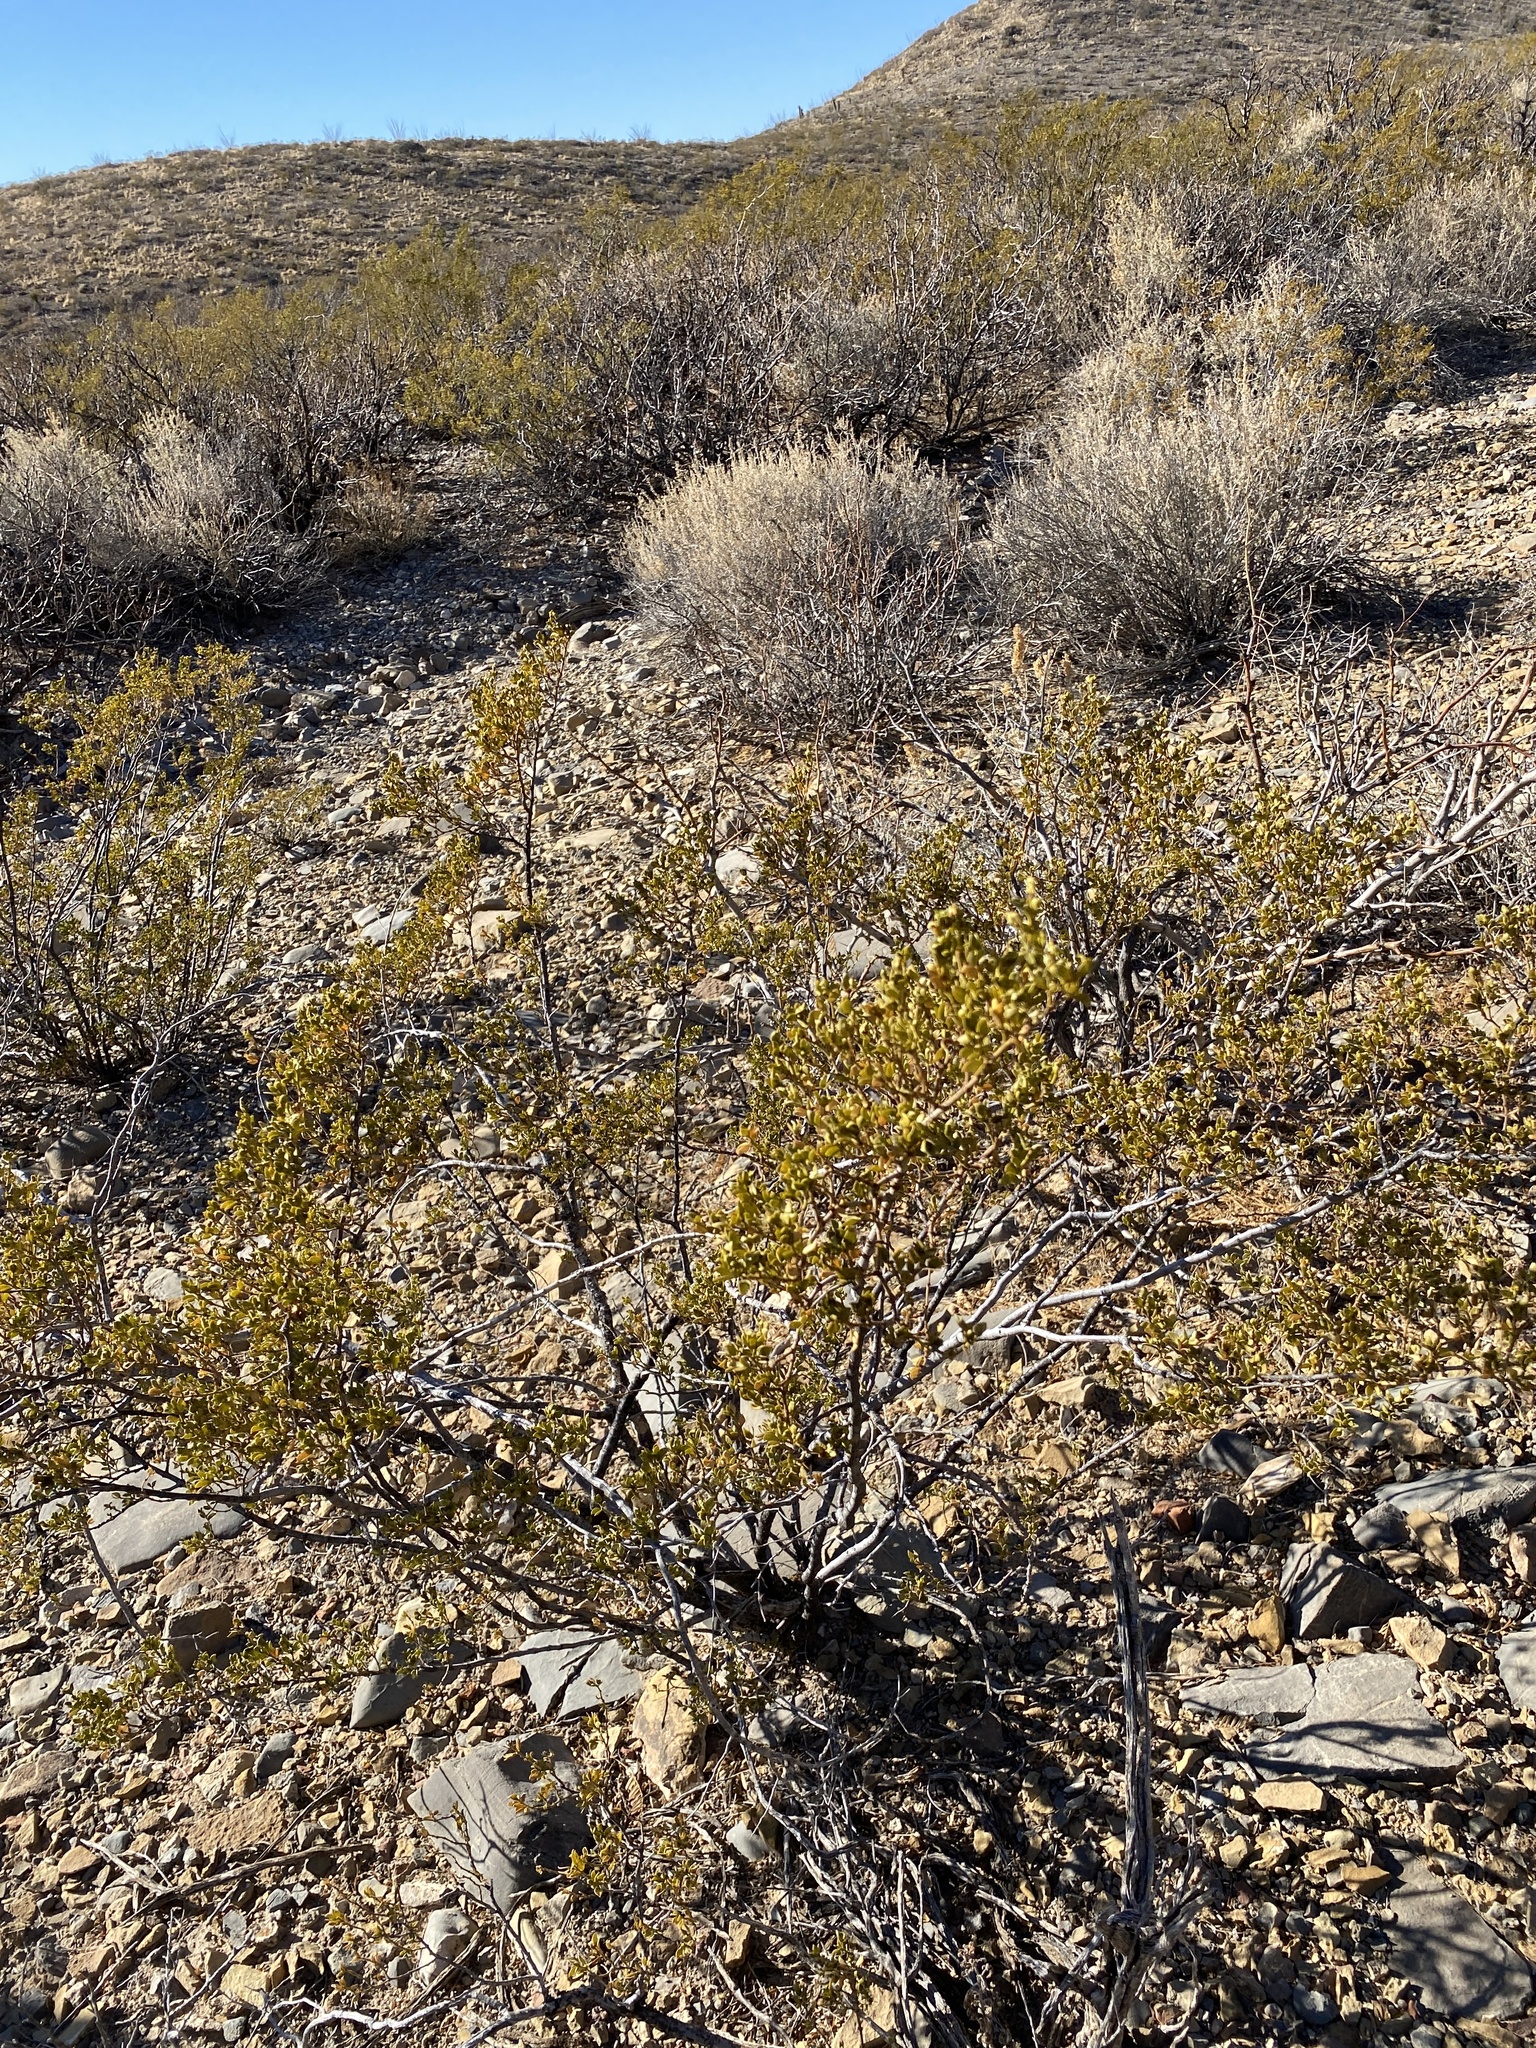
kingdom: Plantae
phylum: Tracheophyta
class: Magnoliopsida
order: Zygophyllales
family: Zygophyllaceae
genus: Larrea
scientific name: Larrea tridentata
